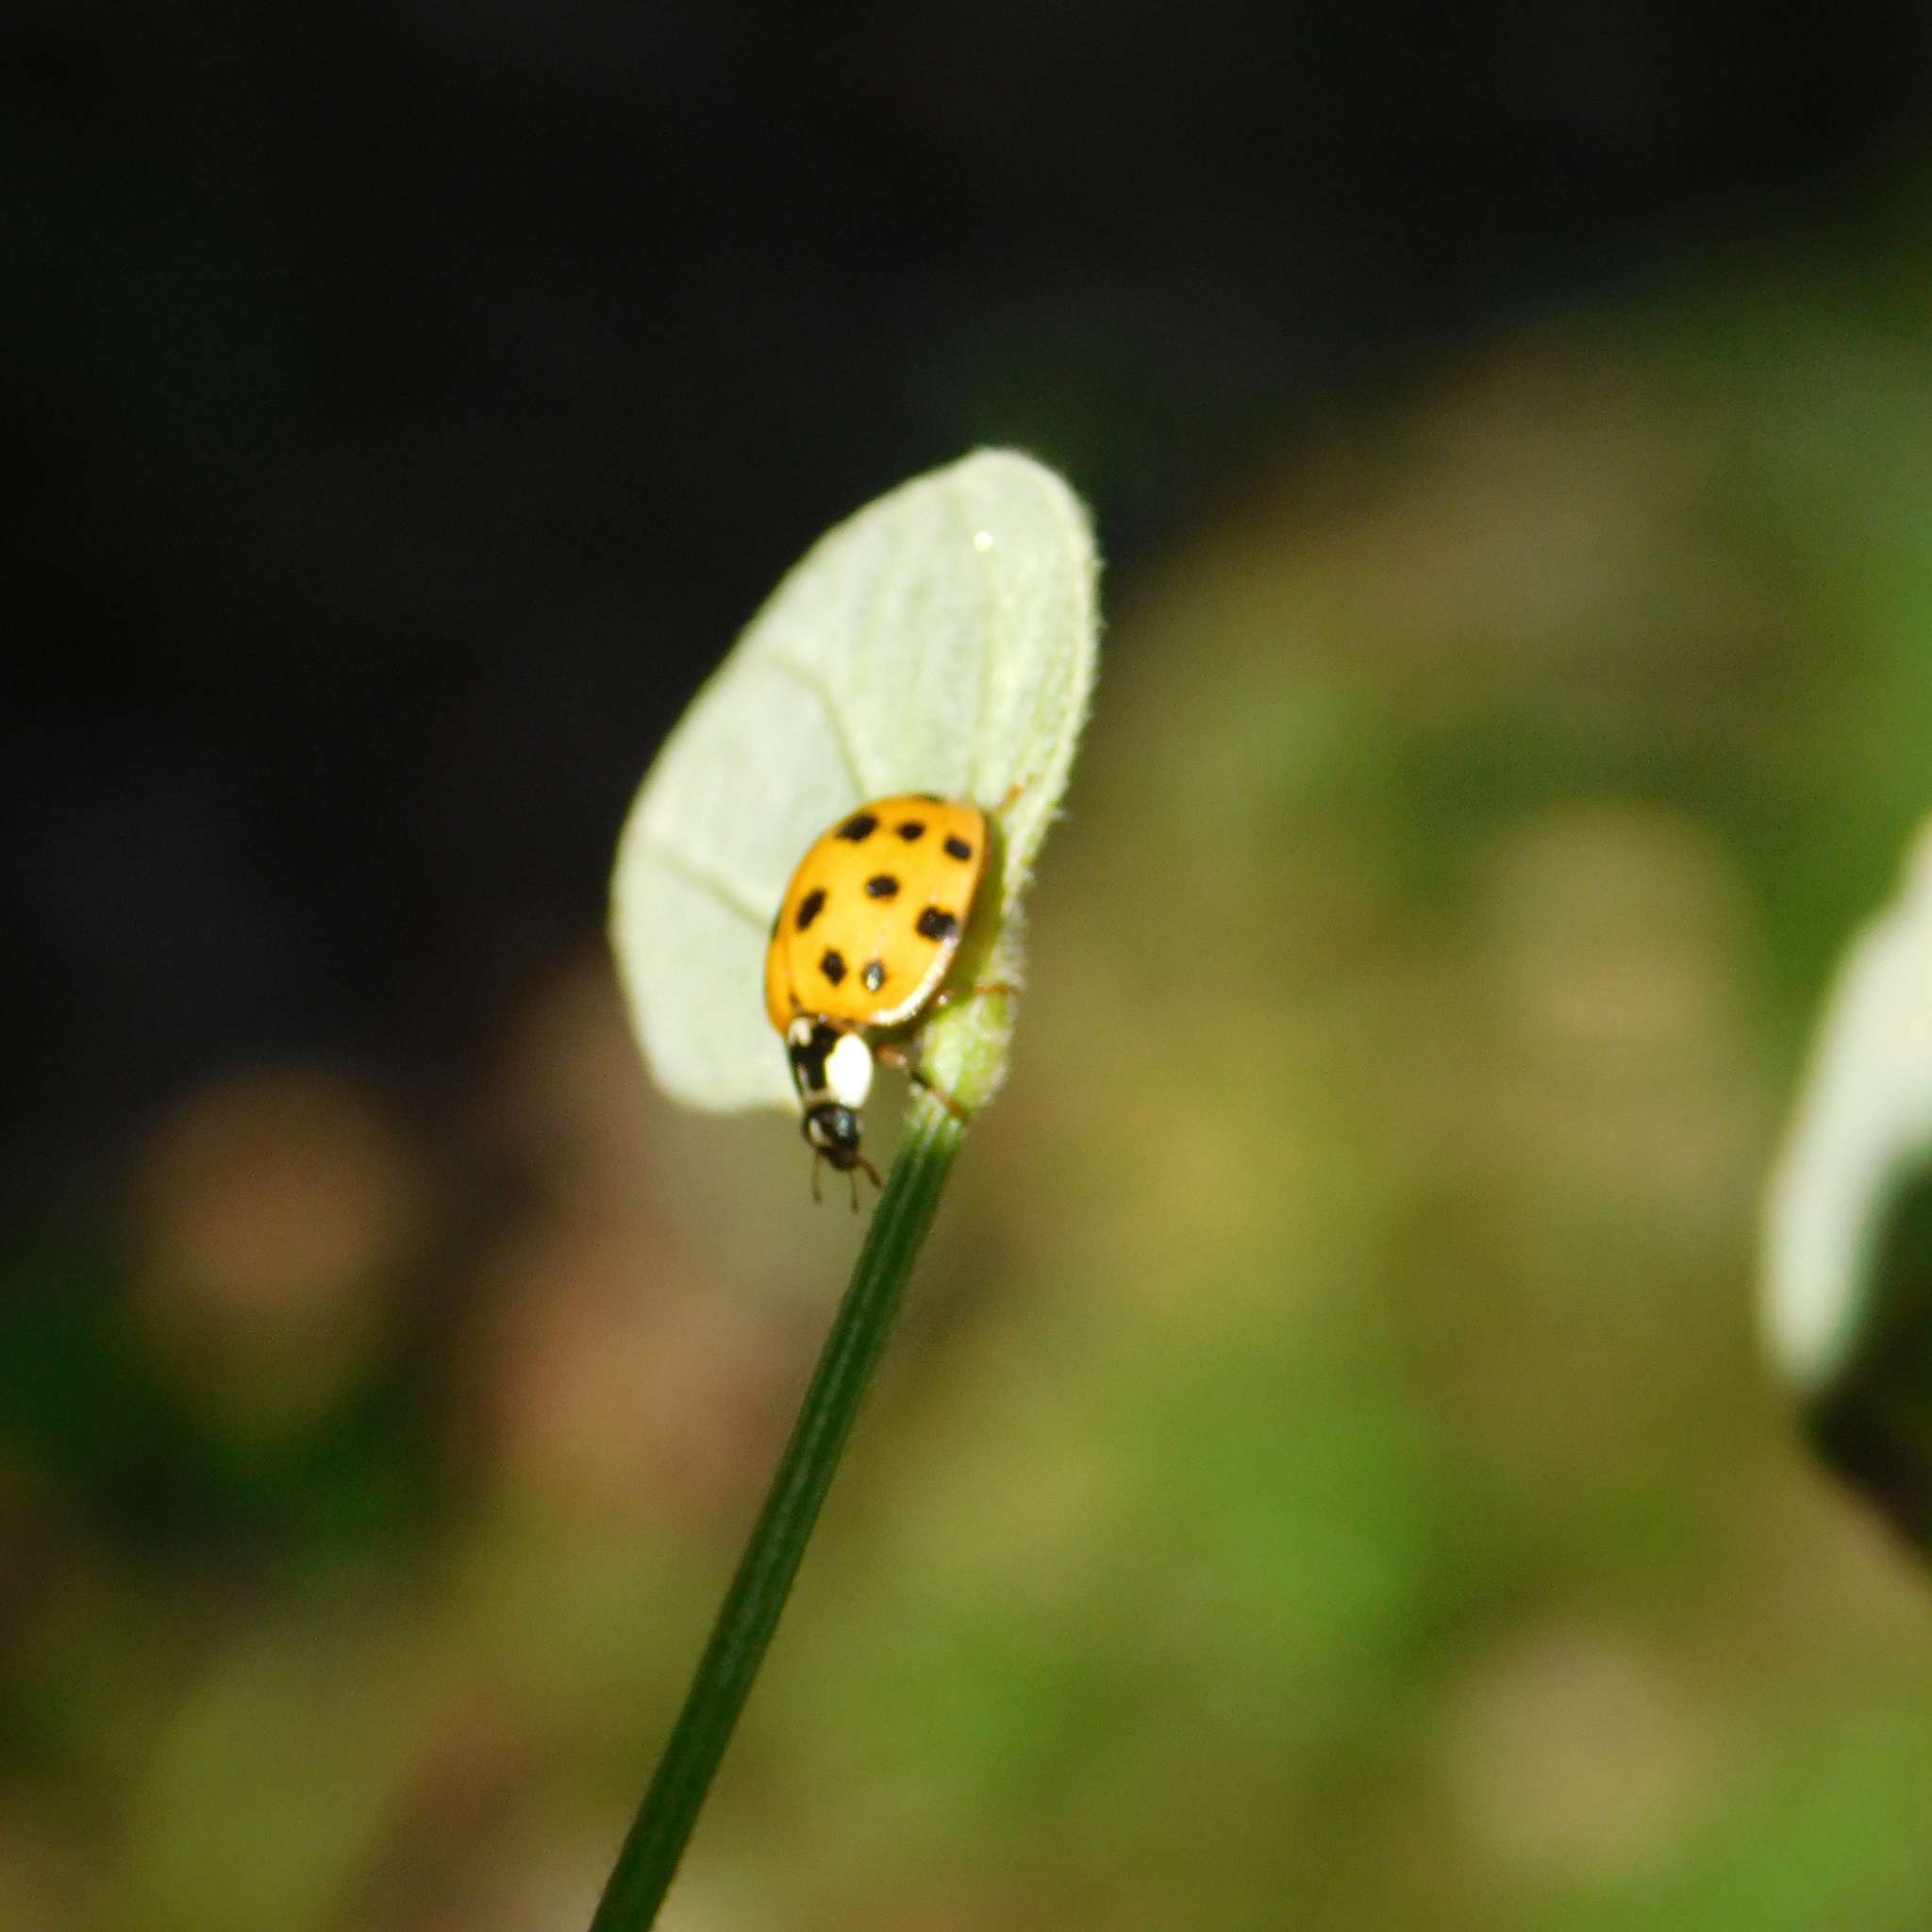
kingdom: Animalia
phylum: Arthropoda
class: Insecta
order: Coleoptera
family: Coccinellidae
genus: Harmonia
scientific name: Harmonia axyridis
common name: Harlequin ladybird
